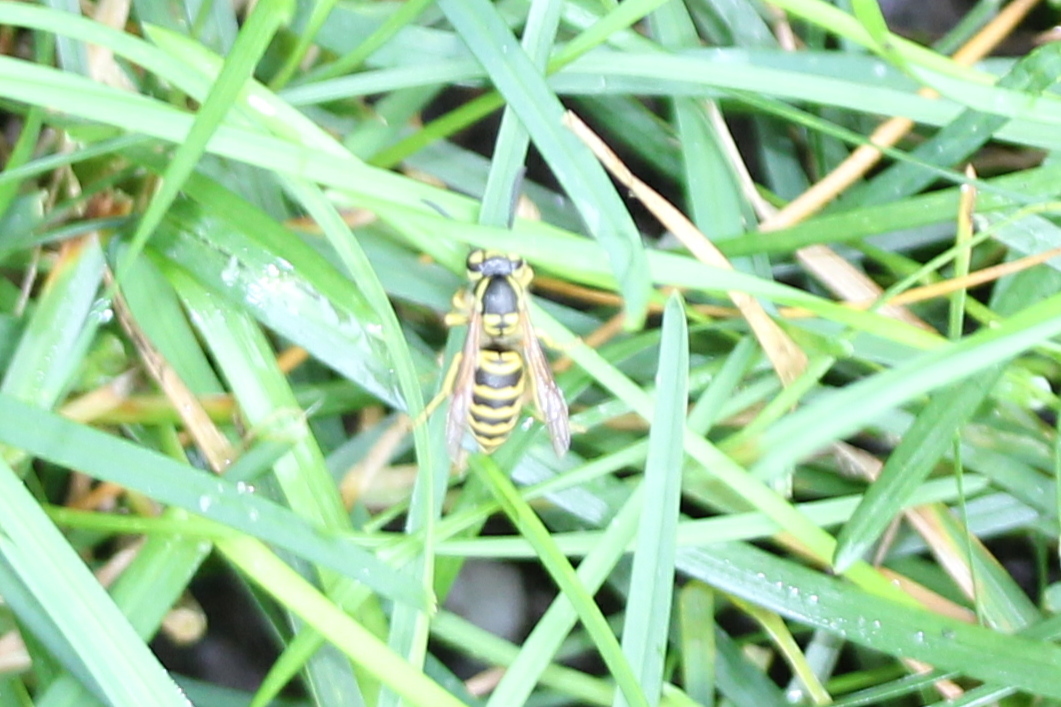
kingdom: Animalia
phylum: Arthropoda
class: Insecta
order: Hymenoptera
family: Vespidae
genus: Vespula
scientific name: Vespula maculifrons
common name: Eastern yellowjacket
